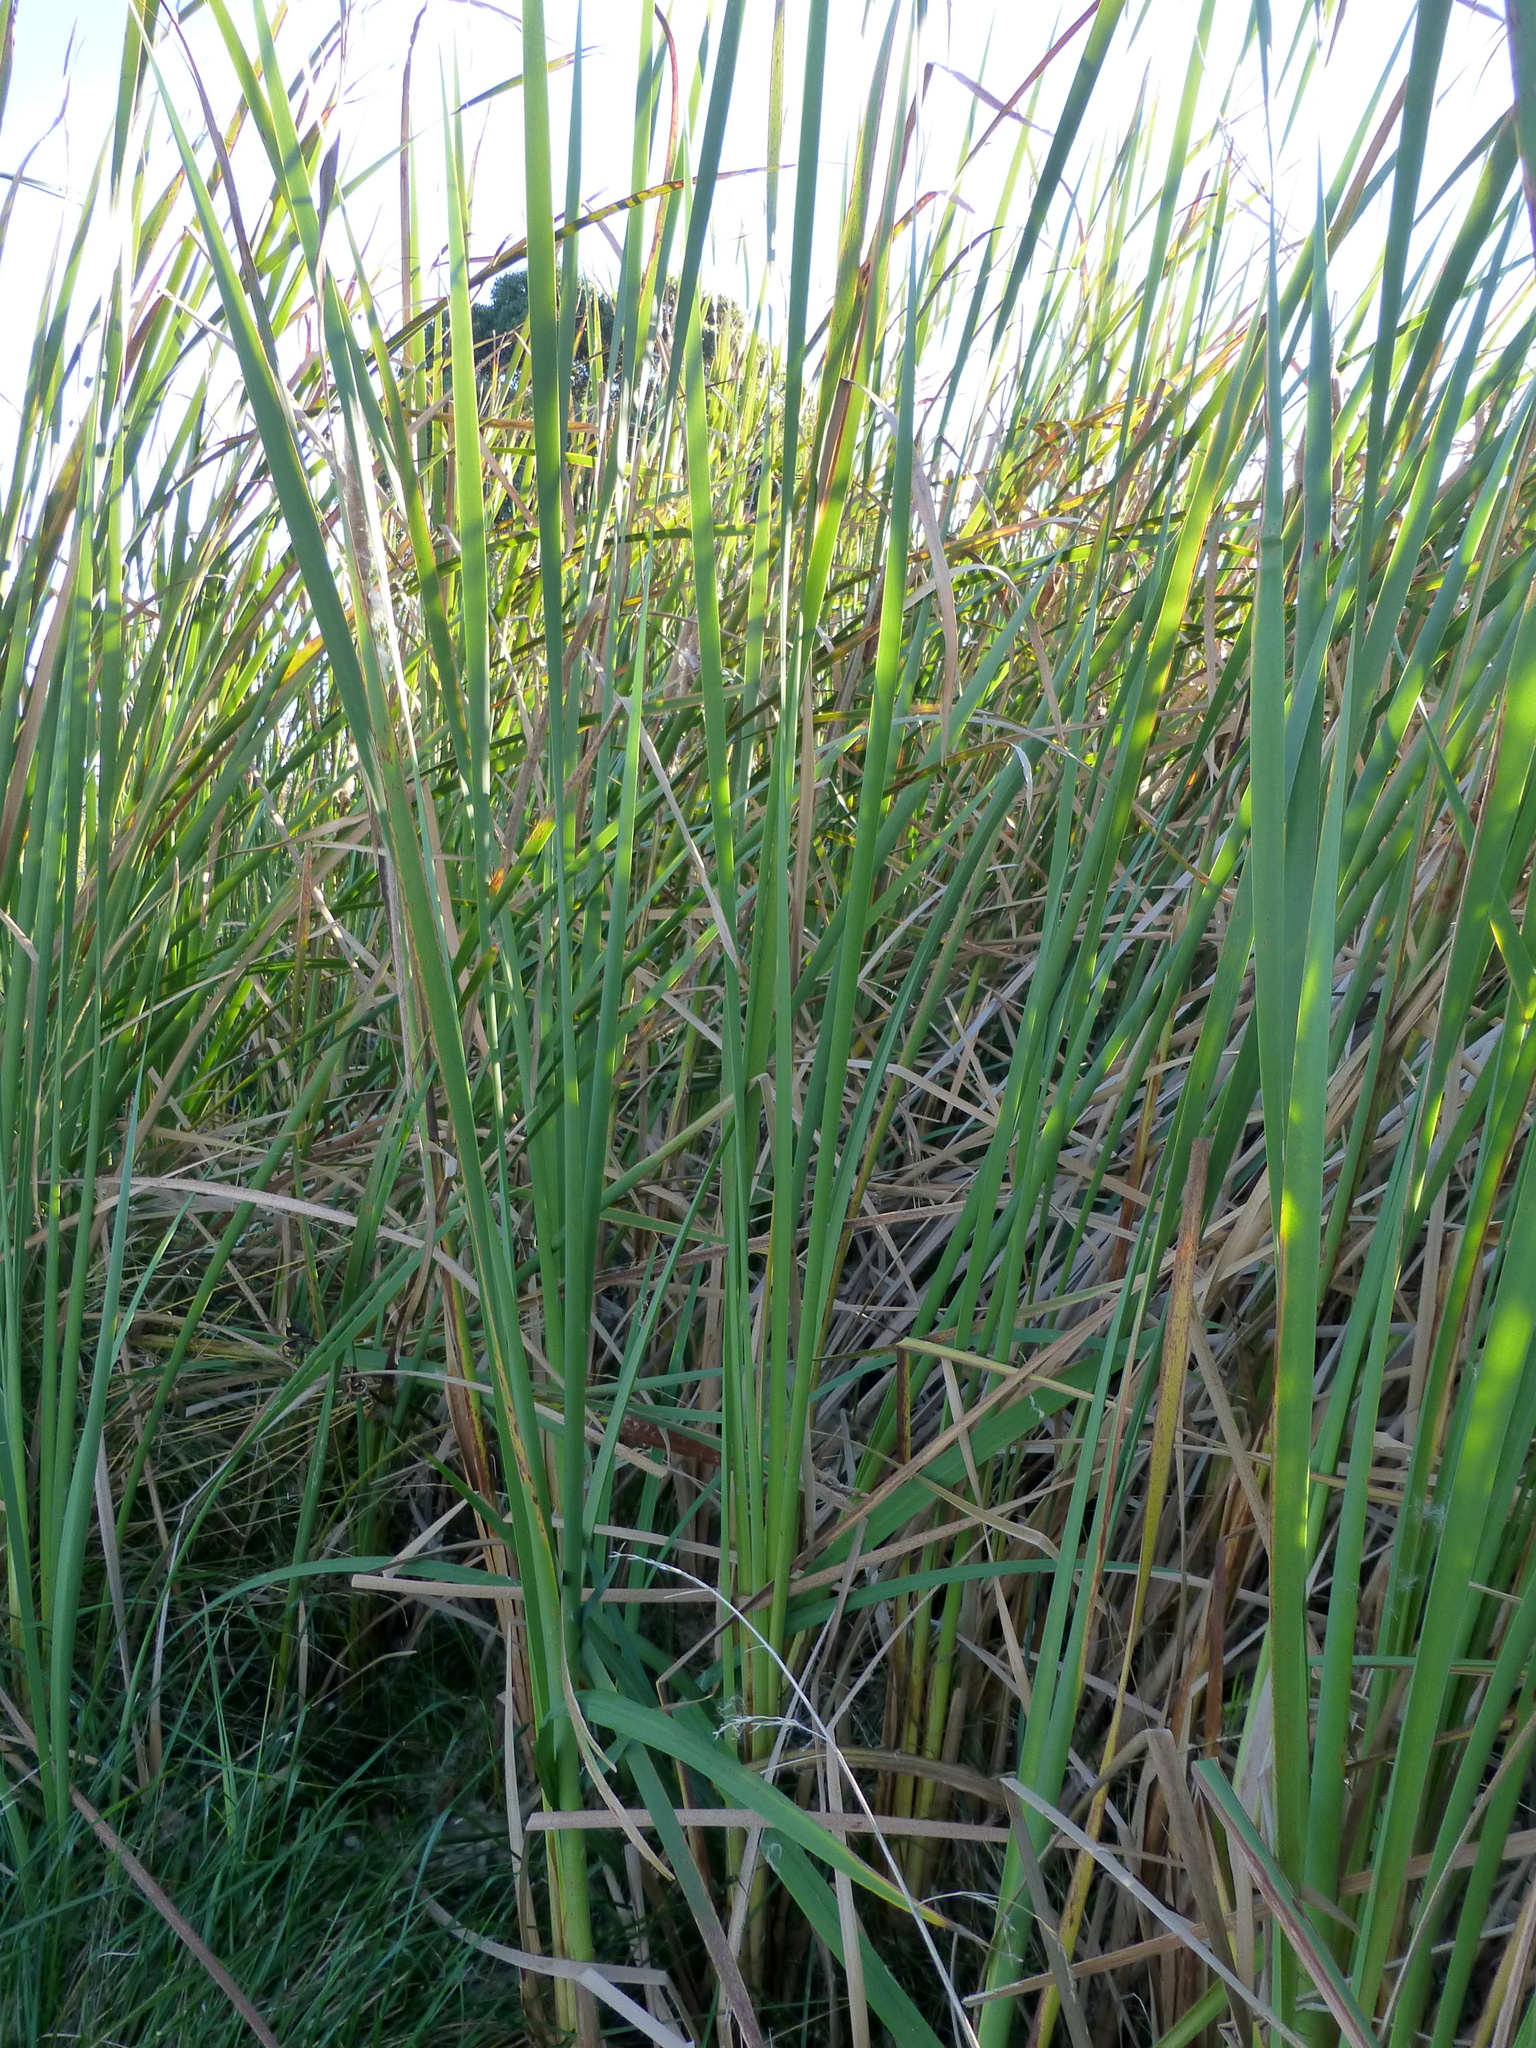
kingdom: Plantae
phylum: Tracheophyta
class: Liliopsida
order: Poales
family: Typhaceae
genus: Typha
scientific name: Typha orientalis
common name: Bullrush
